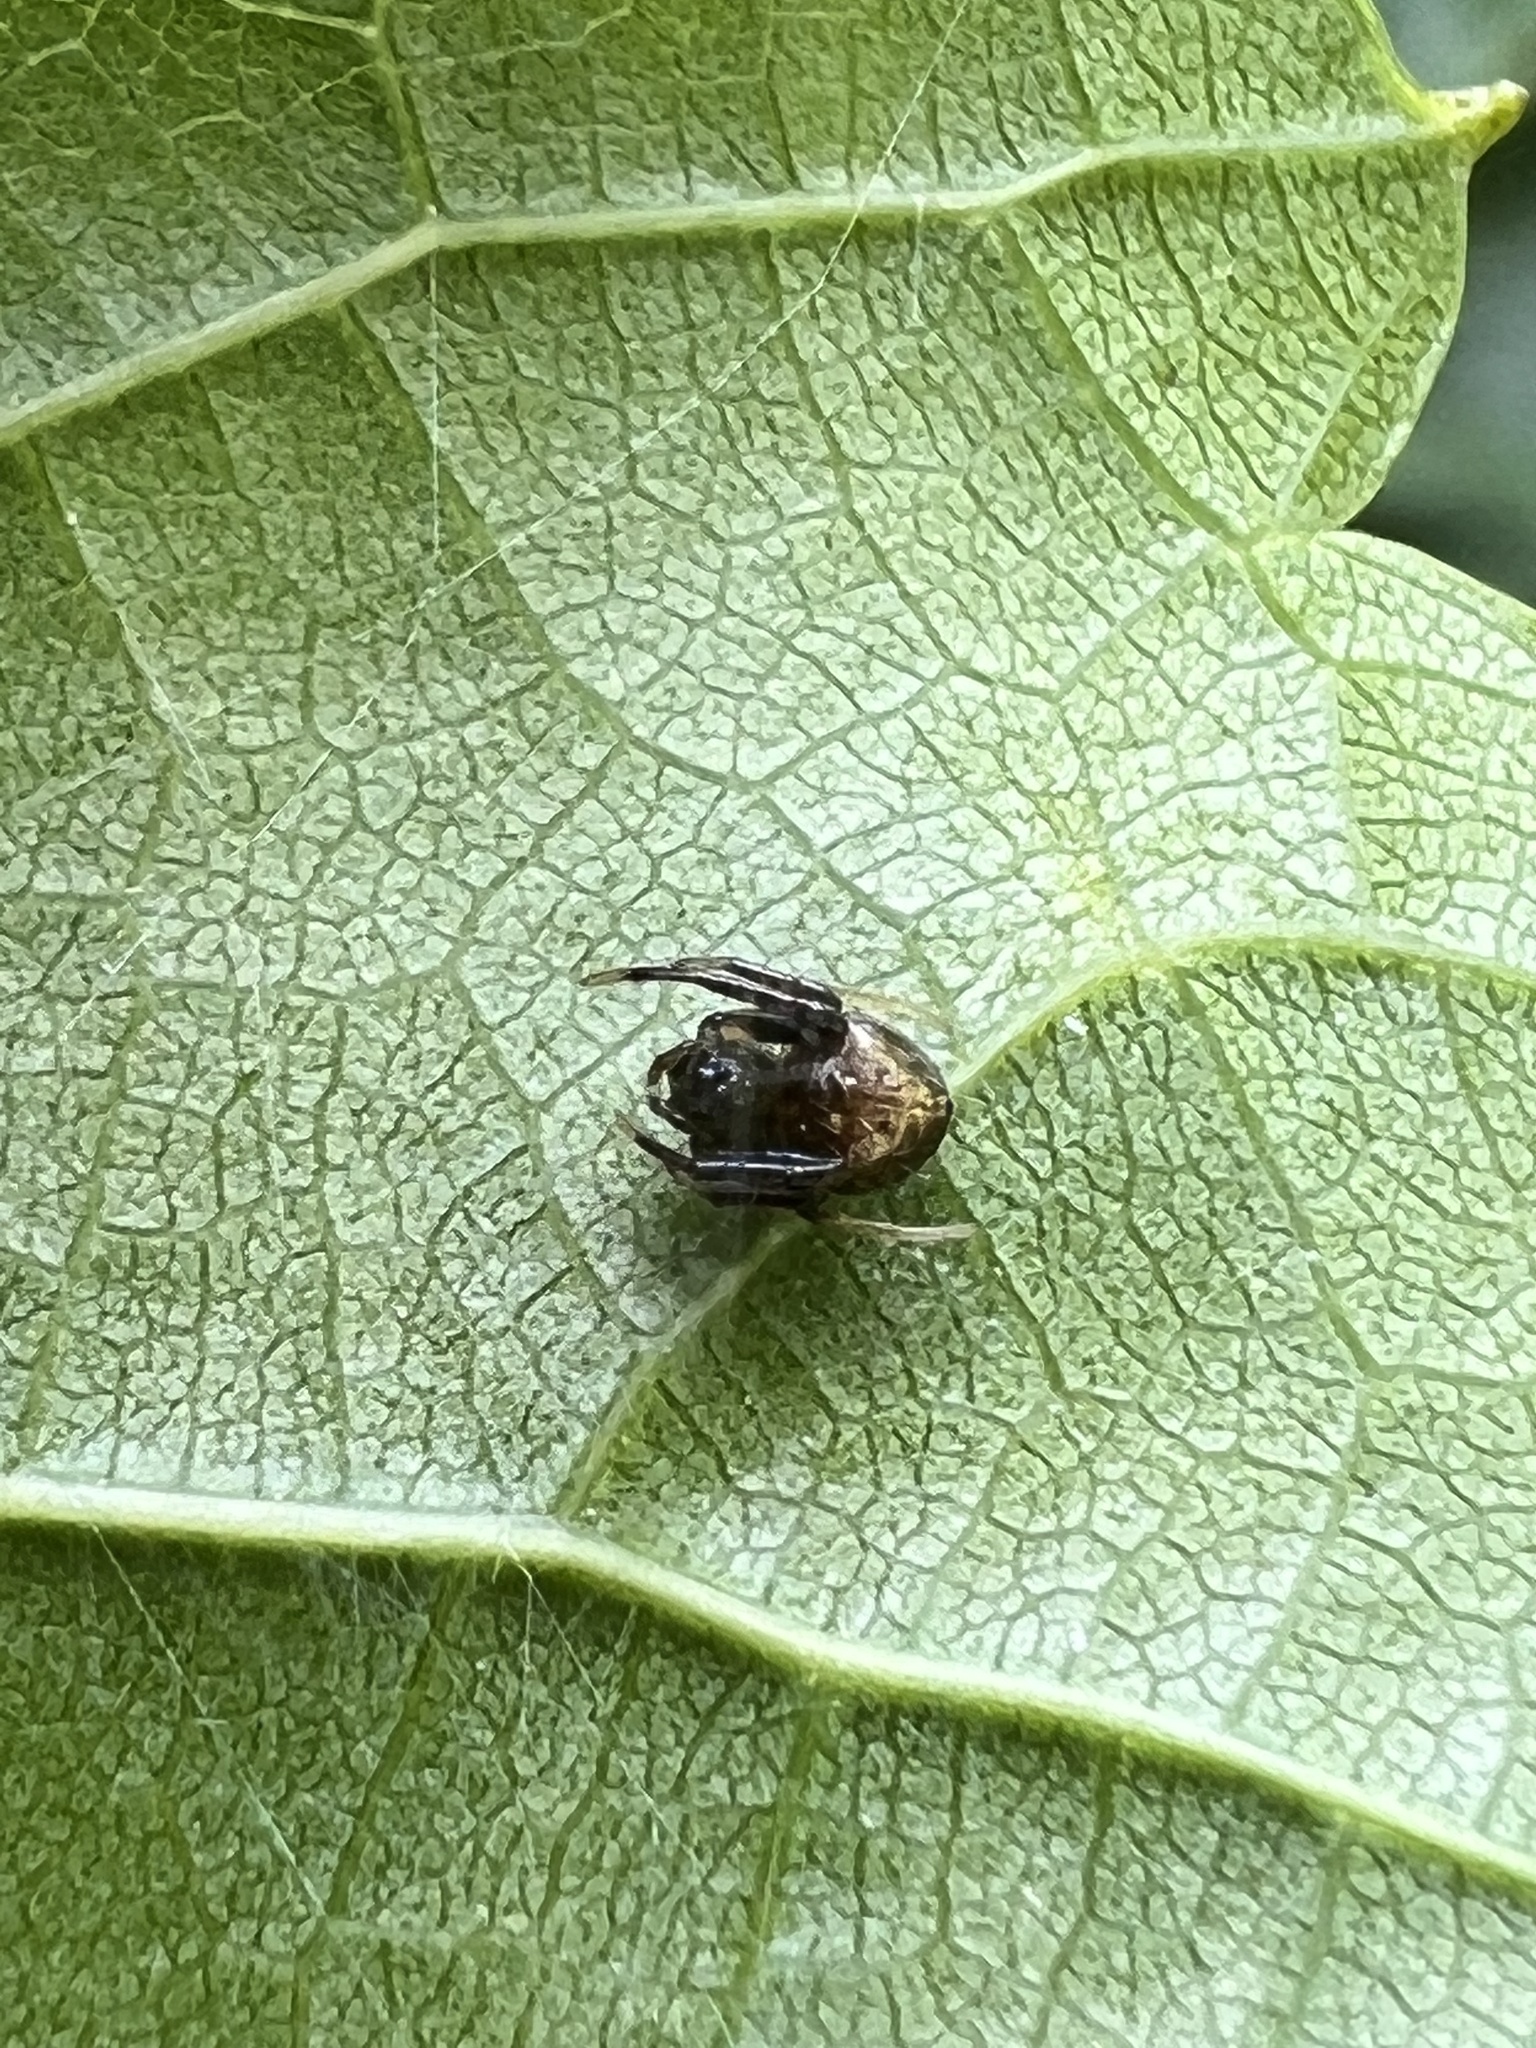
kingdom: Animalia
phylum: Arthropoda
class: Arachnida
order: Araneae
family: Araneidae
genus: Verrucosa
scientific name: Verrucosa arenata
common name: Orb weavers
